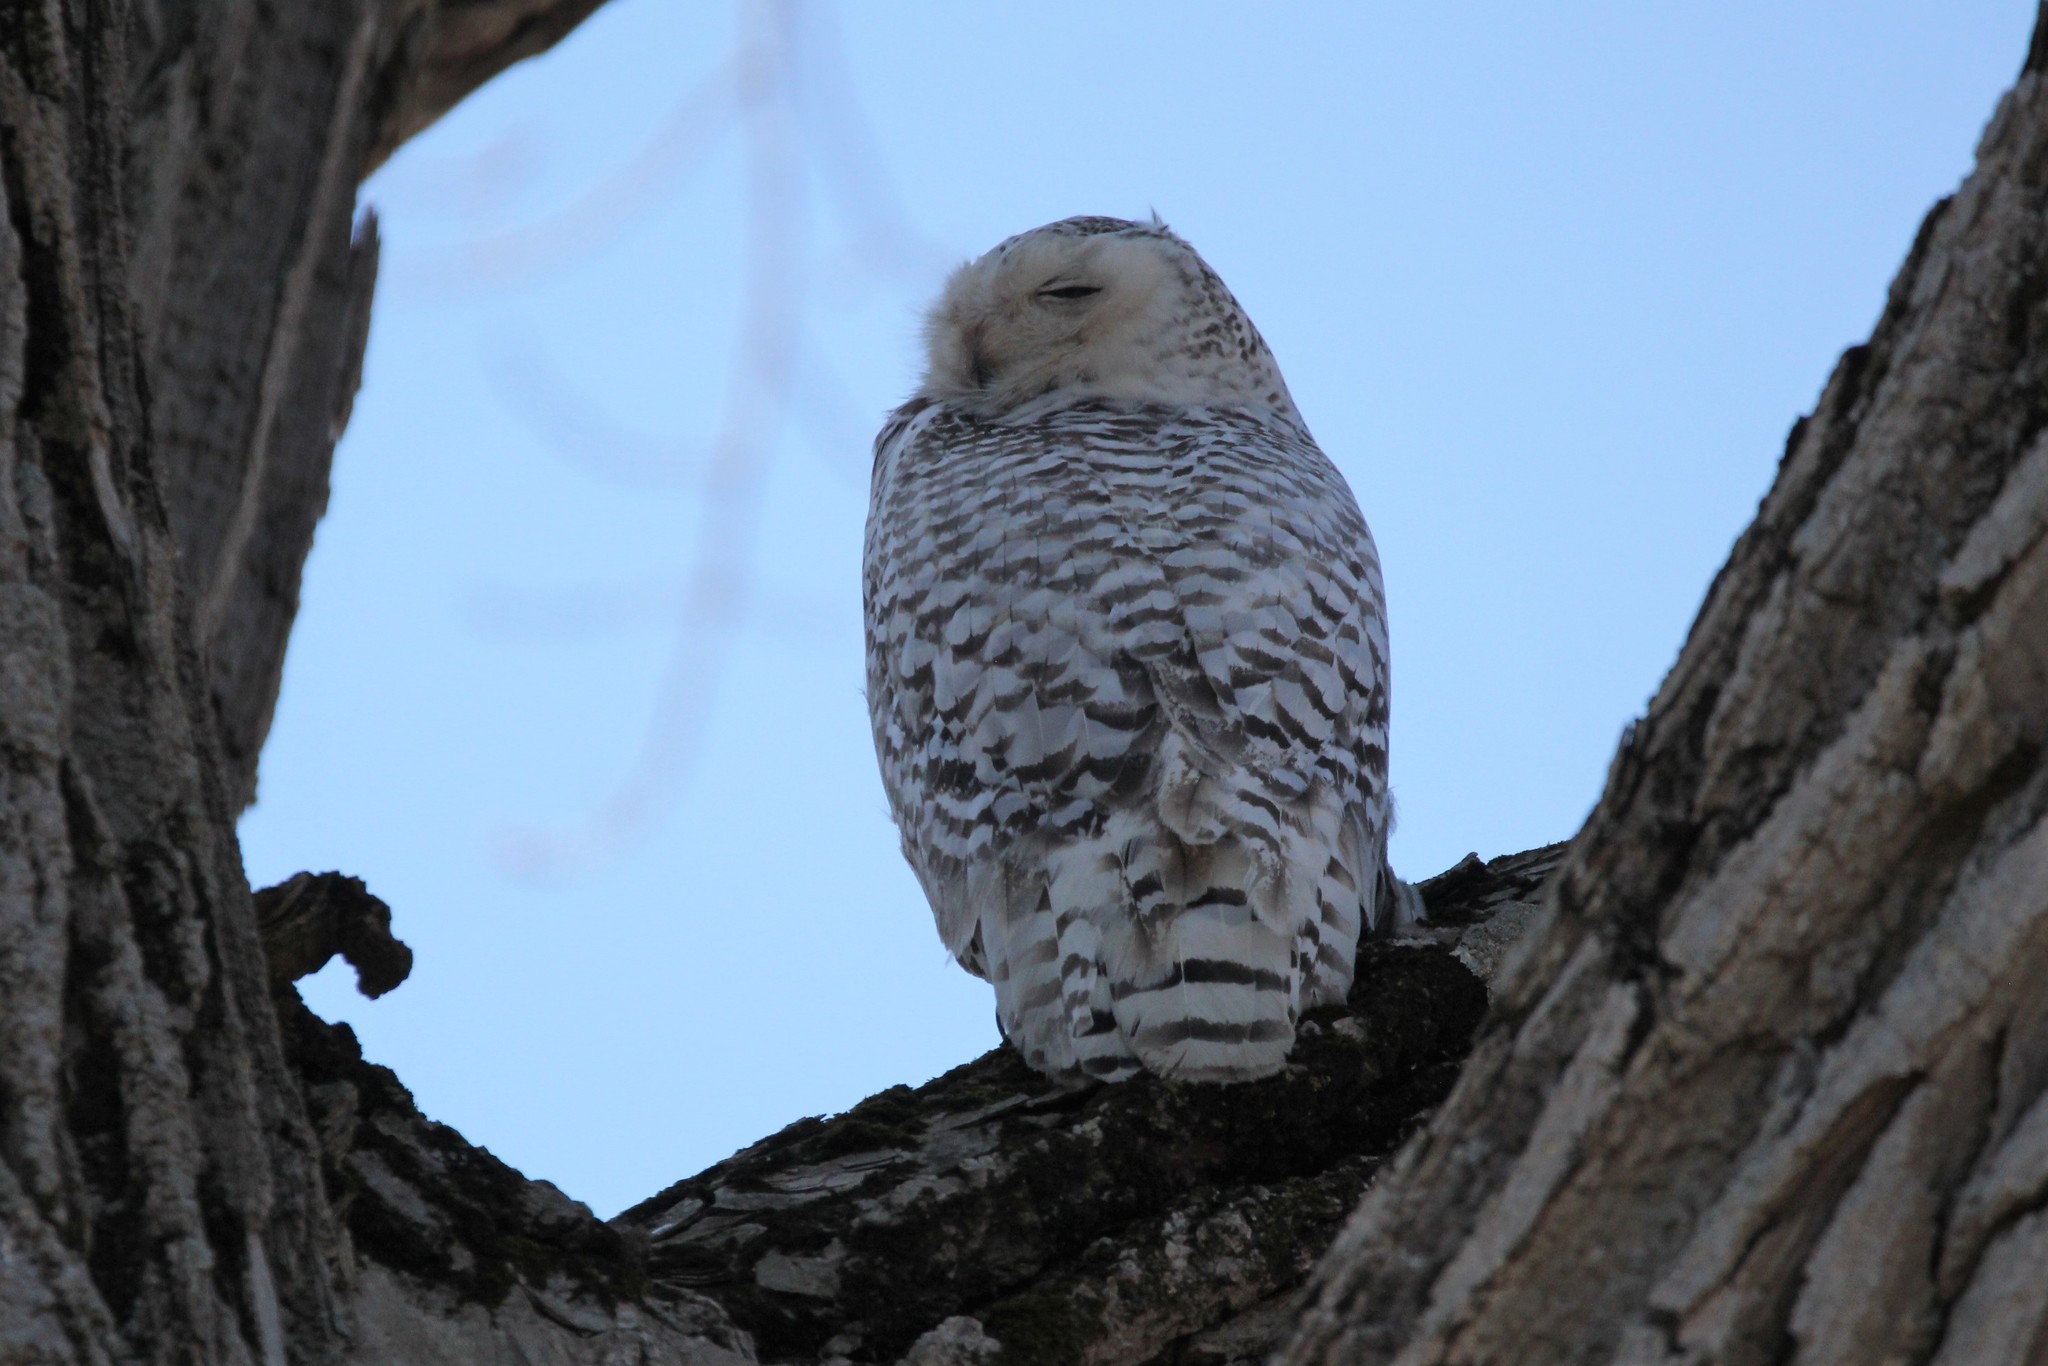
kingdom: Animalia
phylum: Chordata
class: Aves
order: Strigiformes
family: Strigidae
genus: Bubo
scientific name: Bubo scandiacus
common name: Snowy owl
